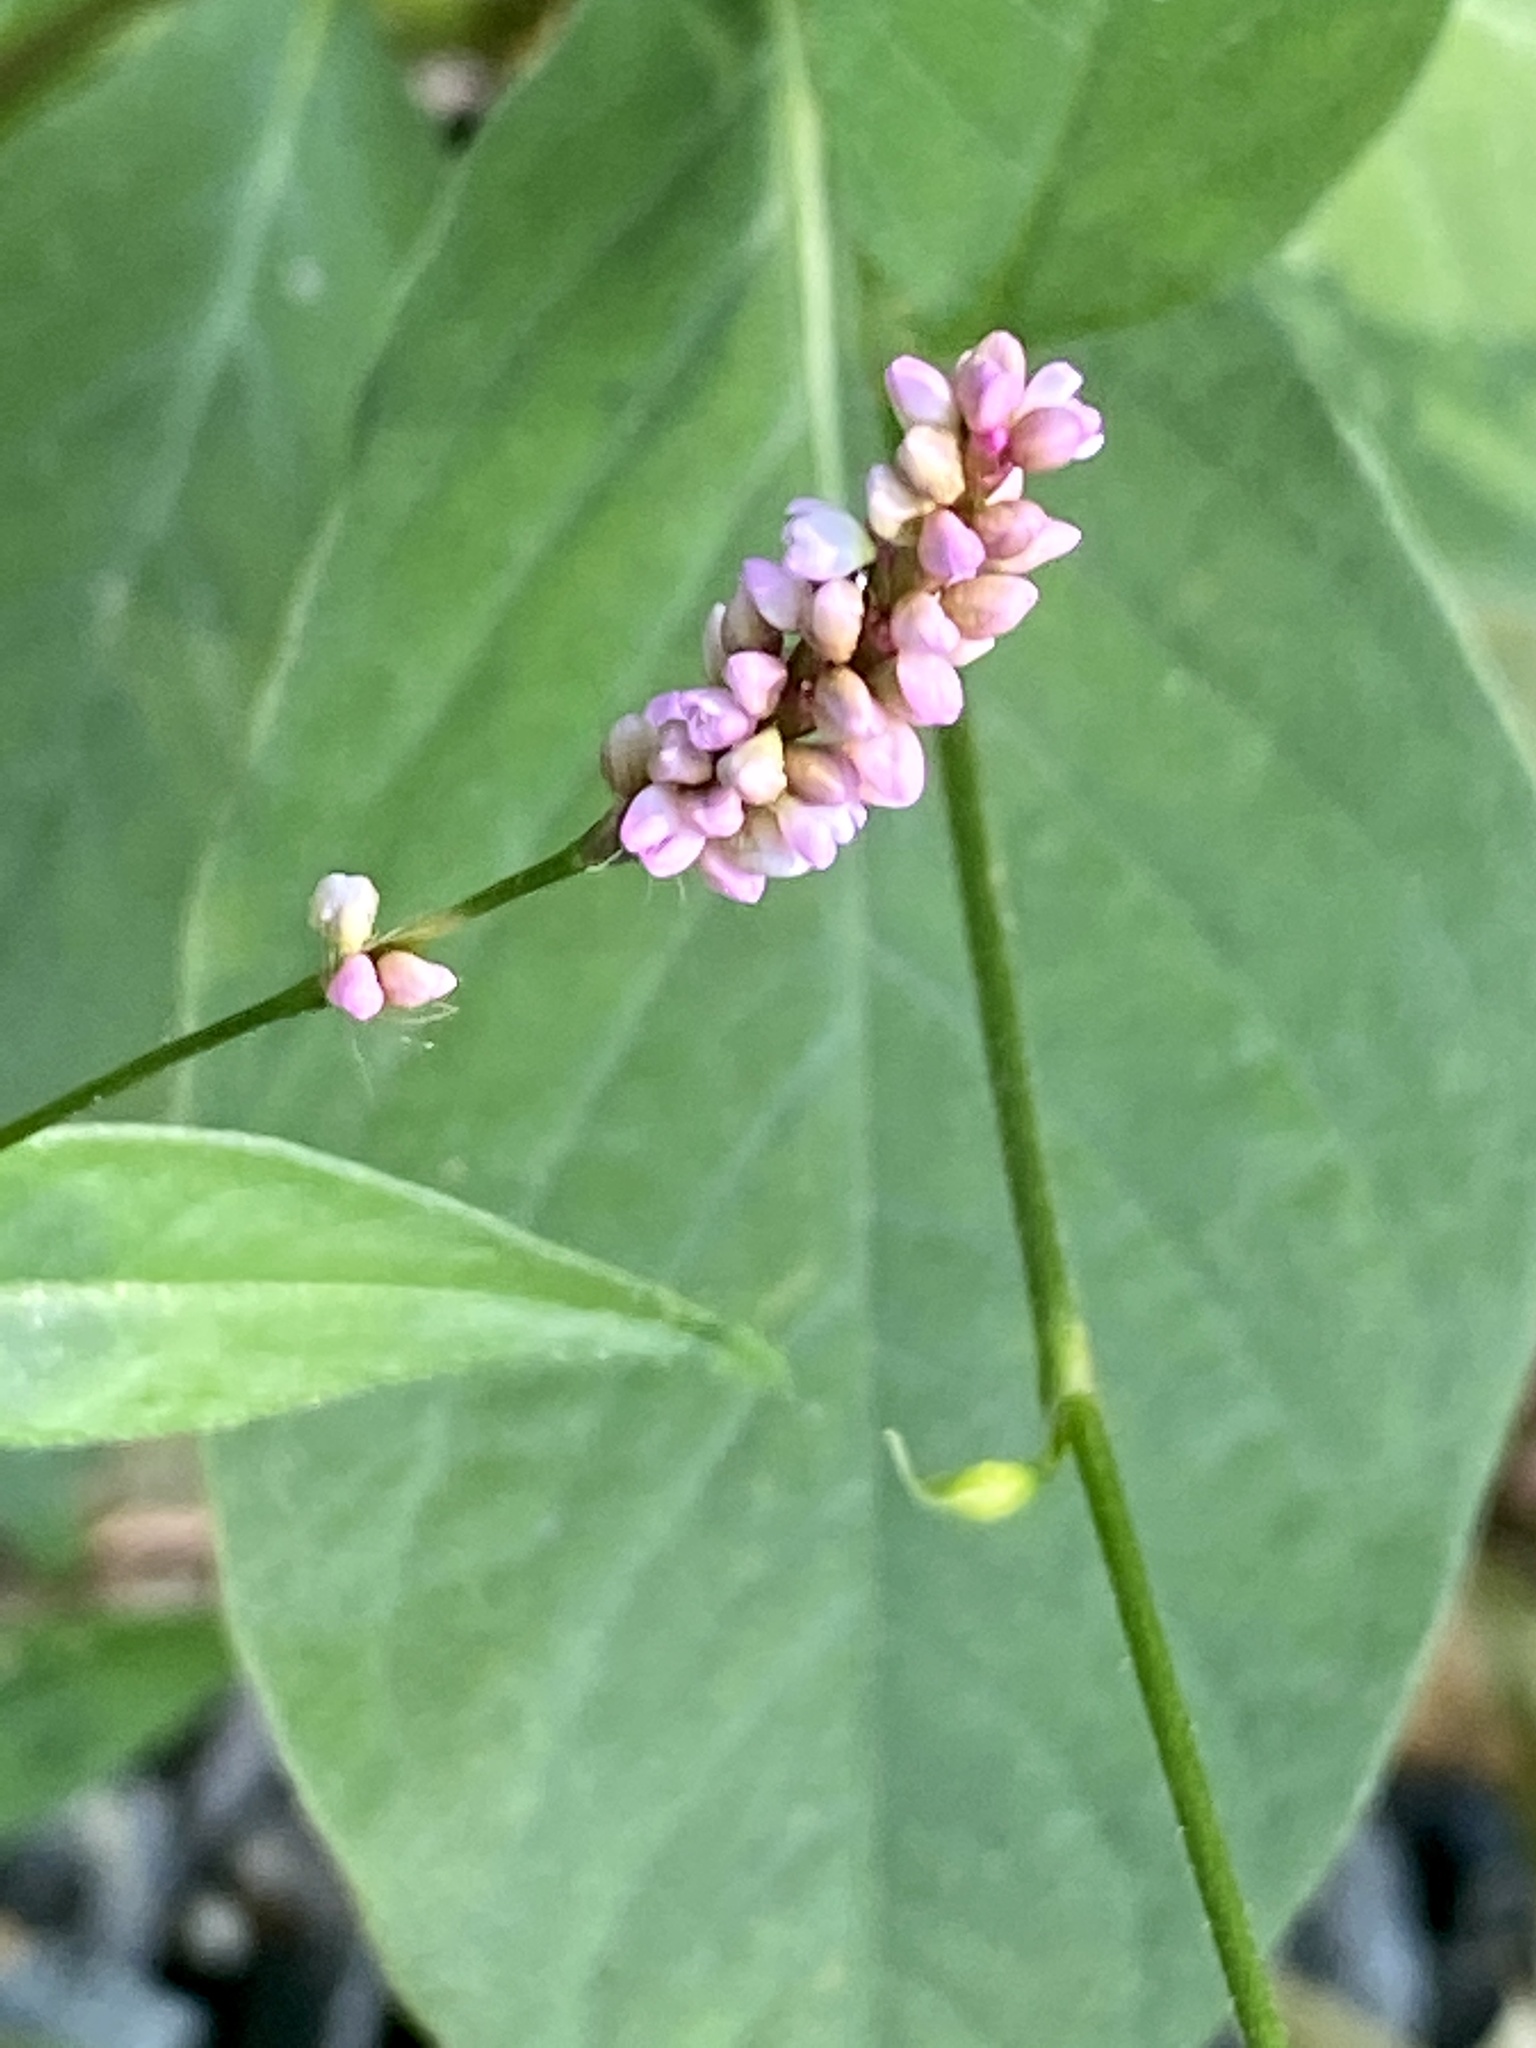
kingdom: Plantae
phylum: Tracheophyta
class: Magnoliopsida
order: Caryophyllales
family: Polygonaceae
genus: Persicaria
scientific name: Persicaria longiseta
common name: Bristly lady's-thumb
